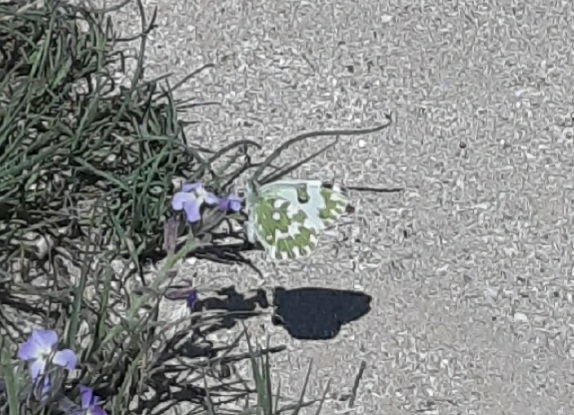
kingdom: Animalia
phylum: Arthropoda
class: Insecta
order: Lepidoptera
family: Pieridae
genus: Pontia
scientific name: Pontia edusa
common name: Eastern bath white
